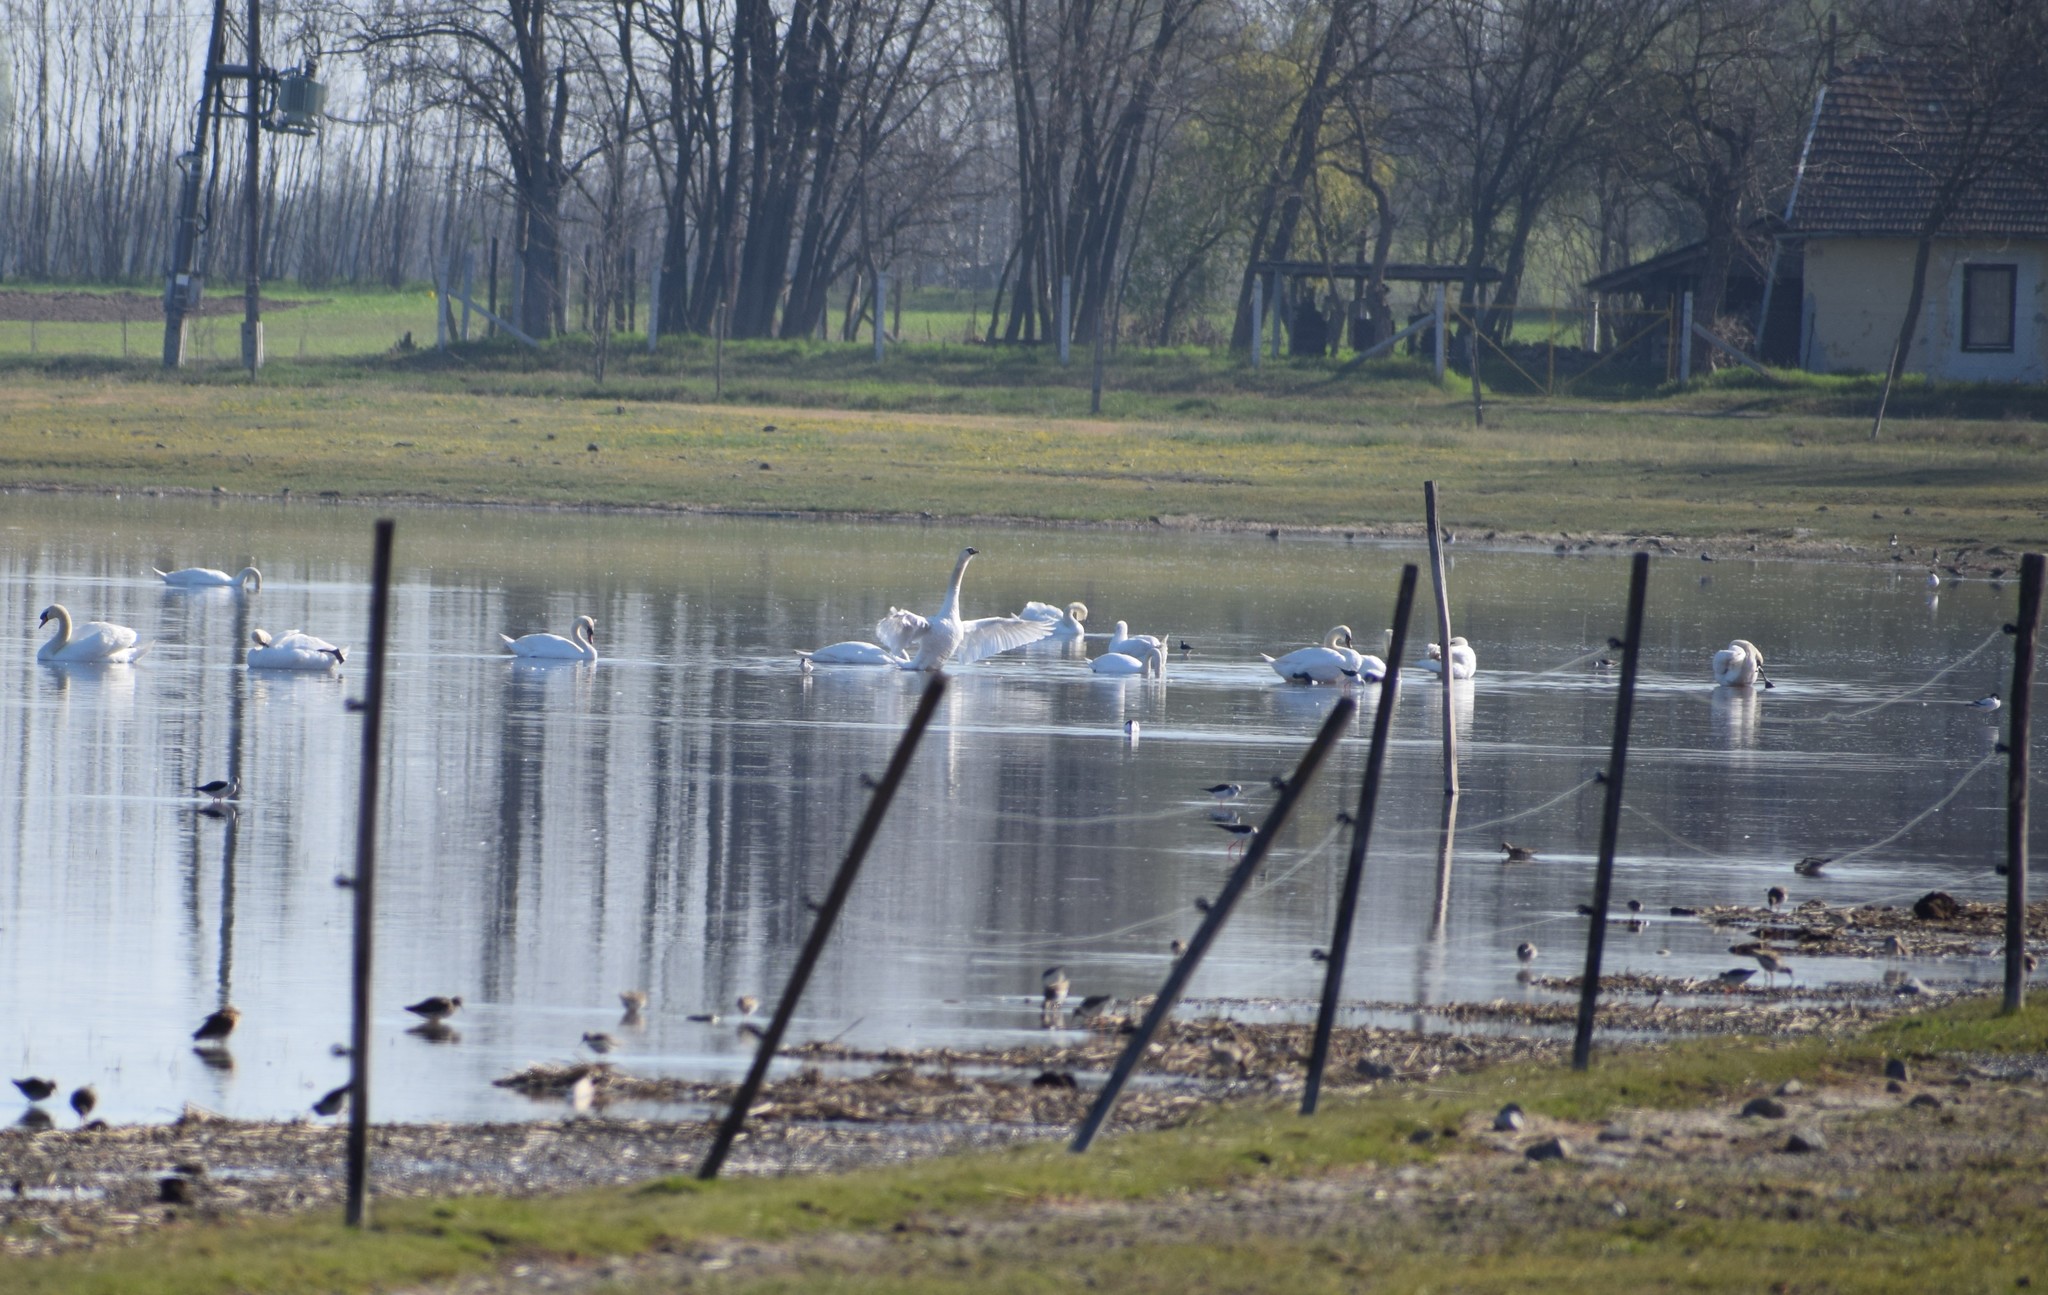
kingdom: Animalia
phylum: Chordata
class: Aves
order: Anseriformes
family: Anatidae
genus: Cygnus
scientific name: Cygnus olor
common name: Mute swan
